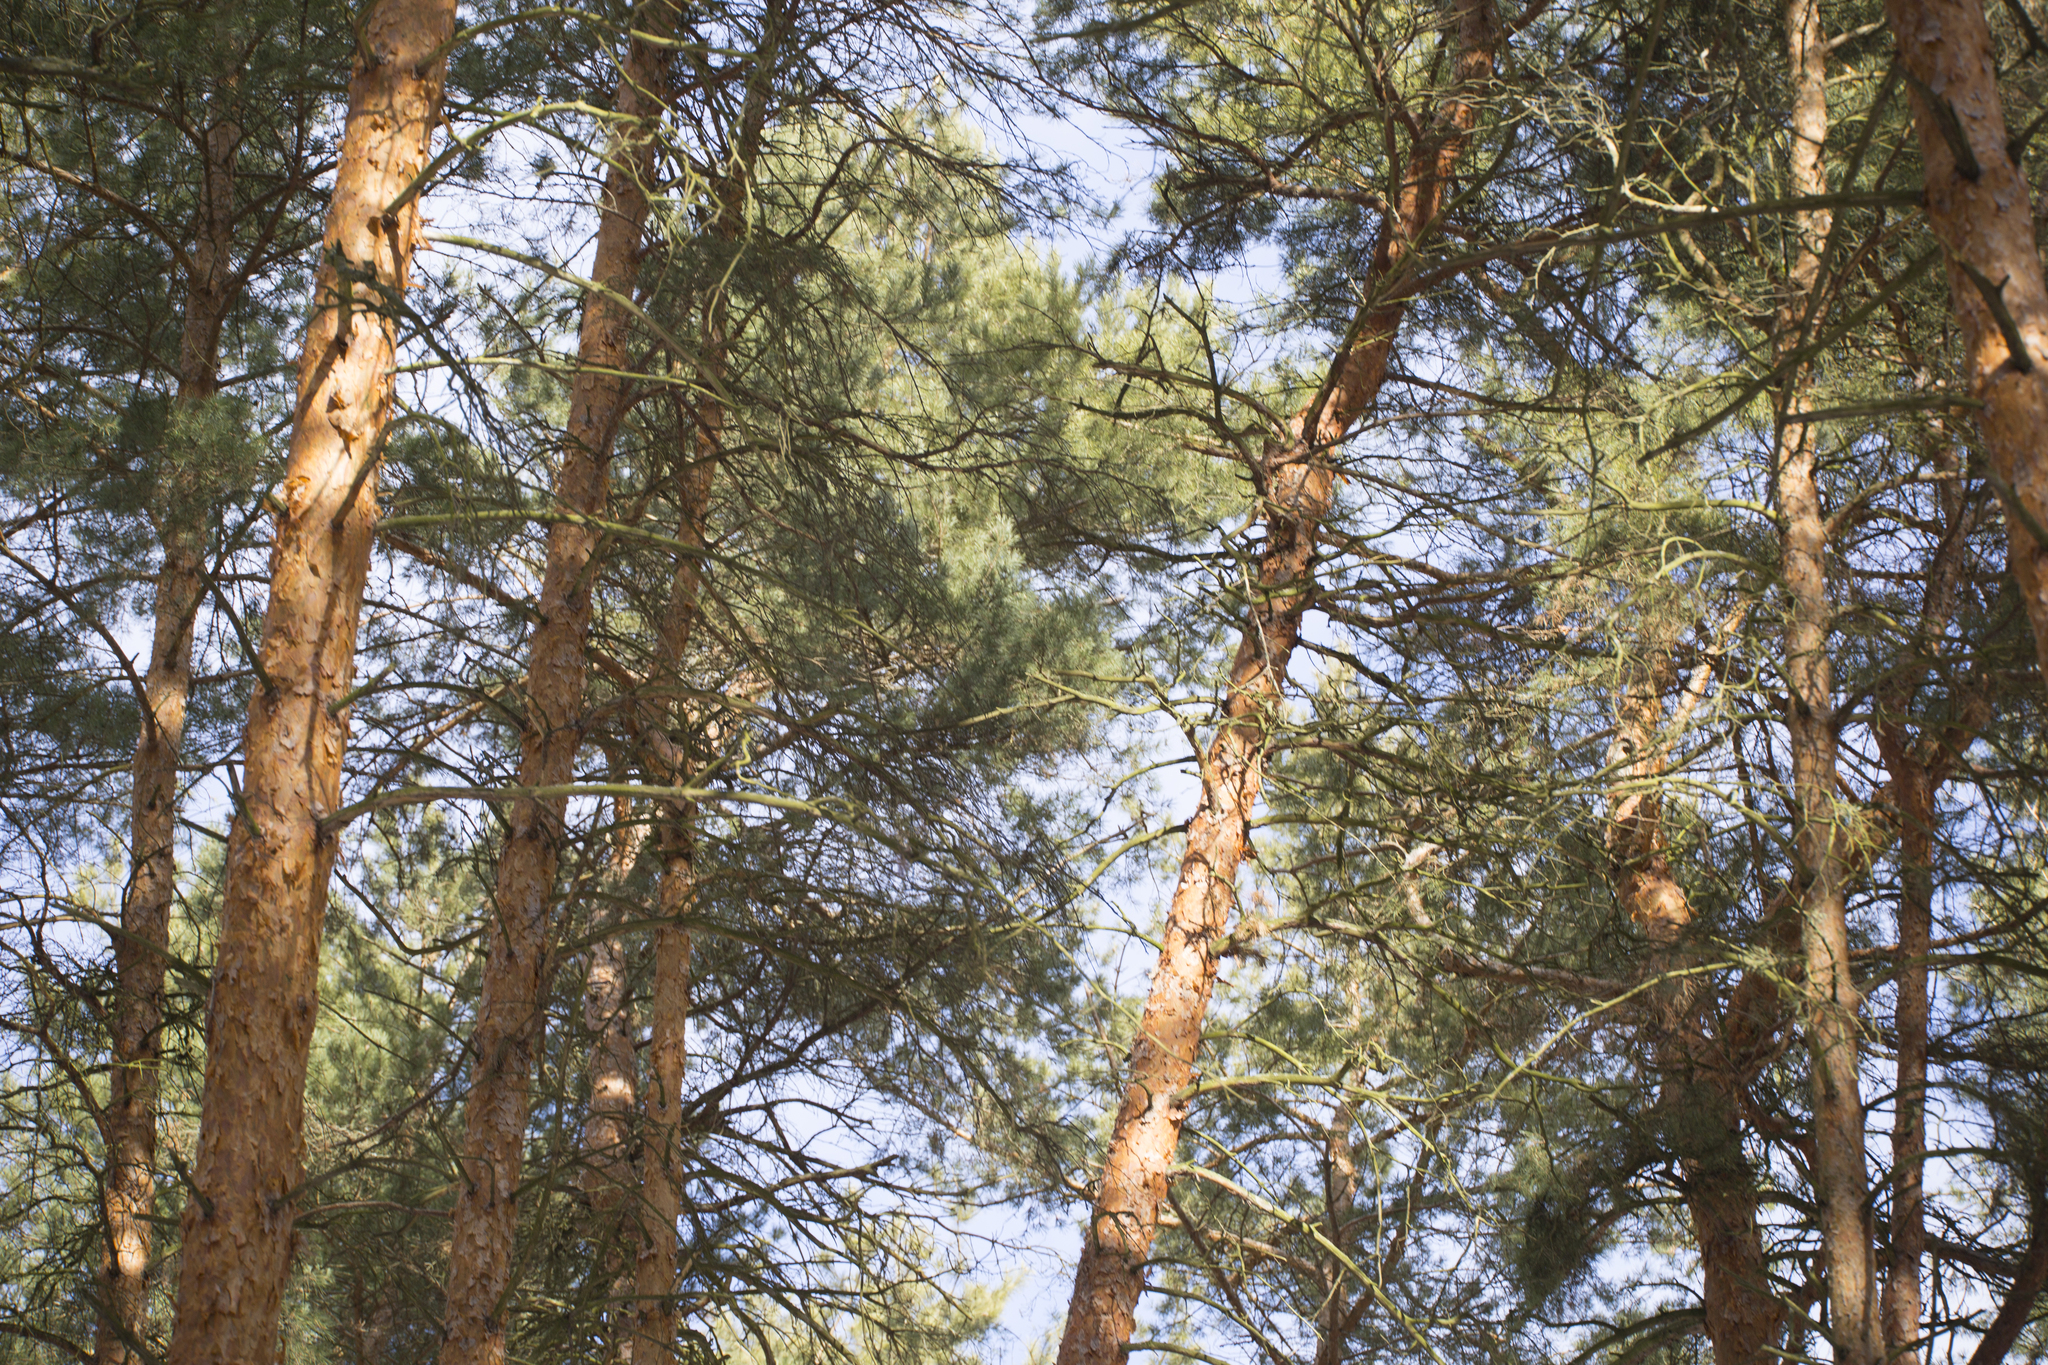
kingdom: Plantae
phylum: Tracheophyta
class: Pinopsida
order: Pinales
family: Pinaceae
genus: Pinus
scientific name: Pinus sylvestris
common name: Scots pine
